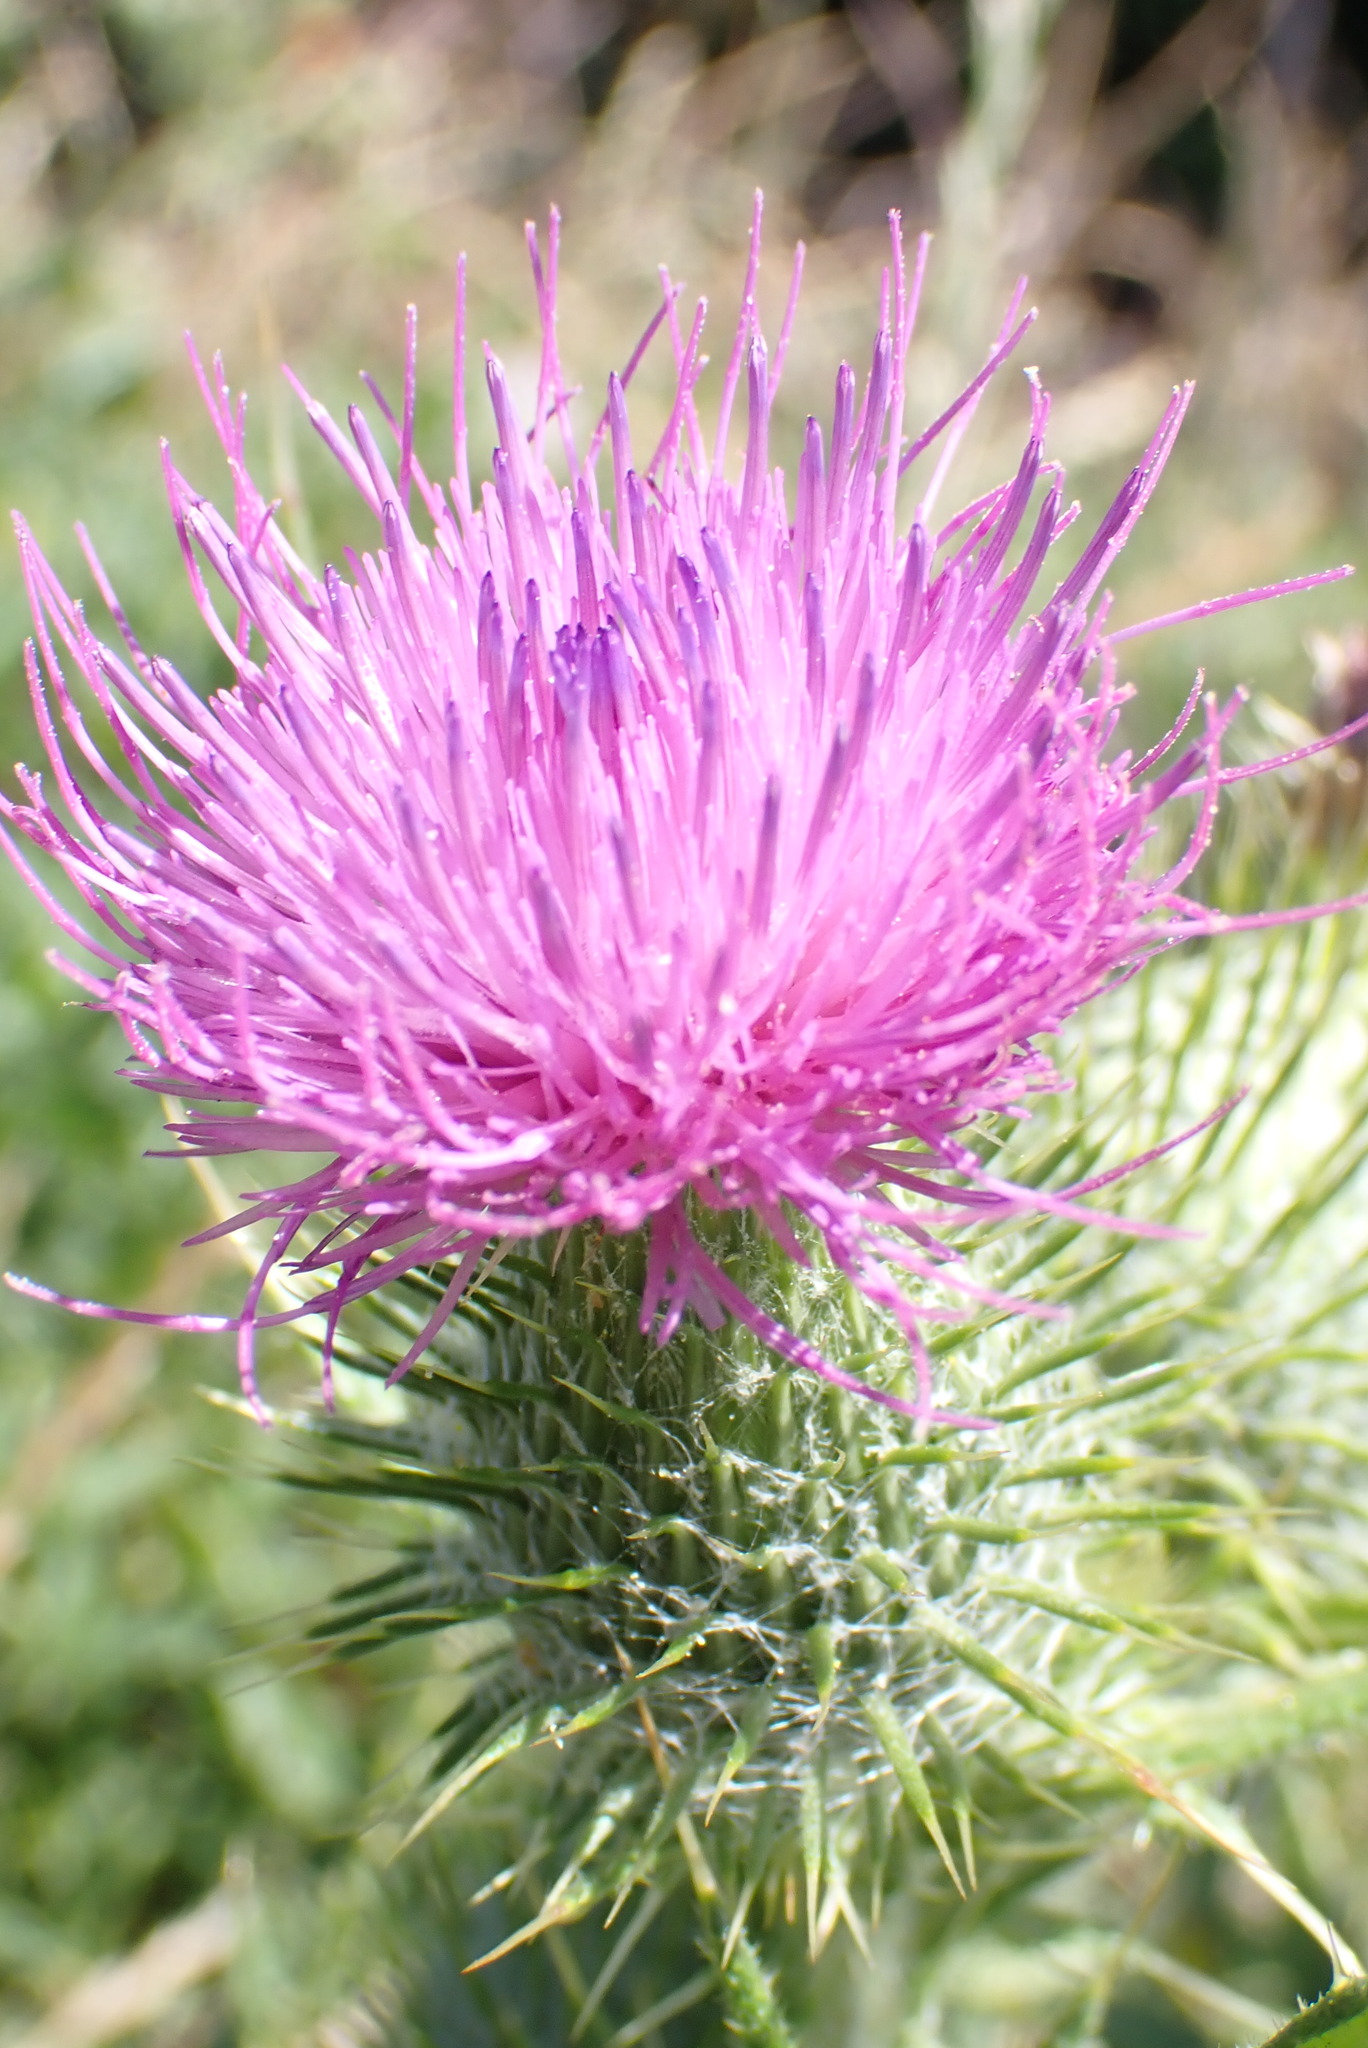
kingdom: Plantae
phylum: Tracheophyta
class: Magnoliopsida
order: Asterales
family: Asteraceae
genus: Cirsium
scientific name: Cirsium vulgare
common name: Bull thistle
